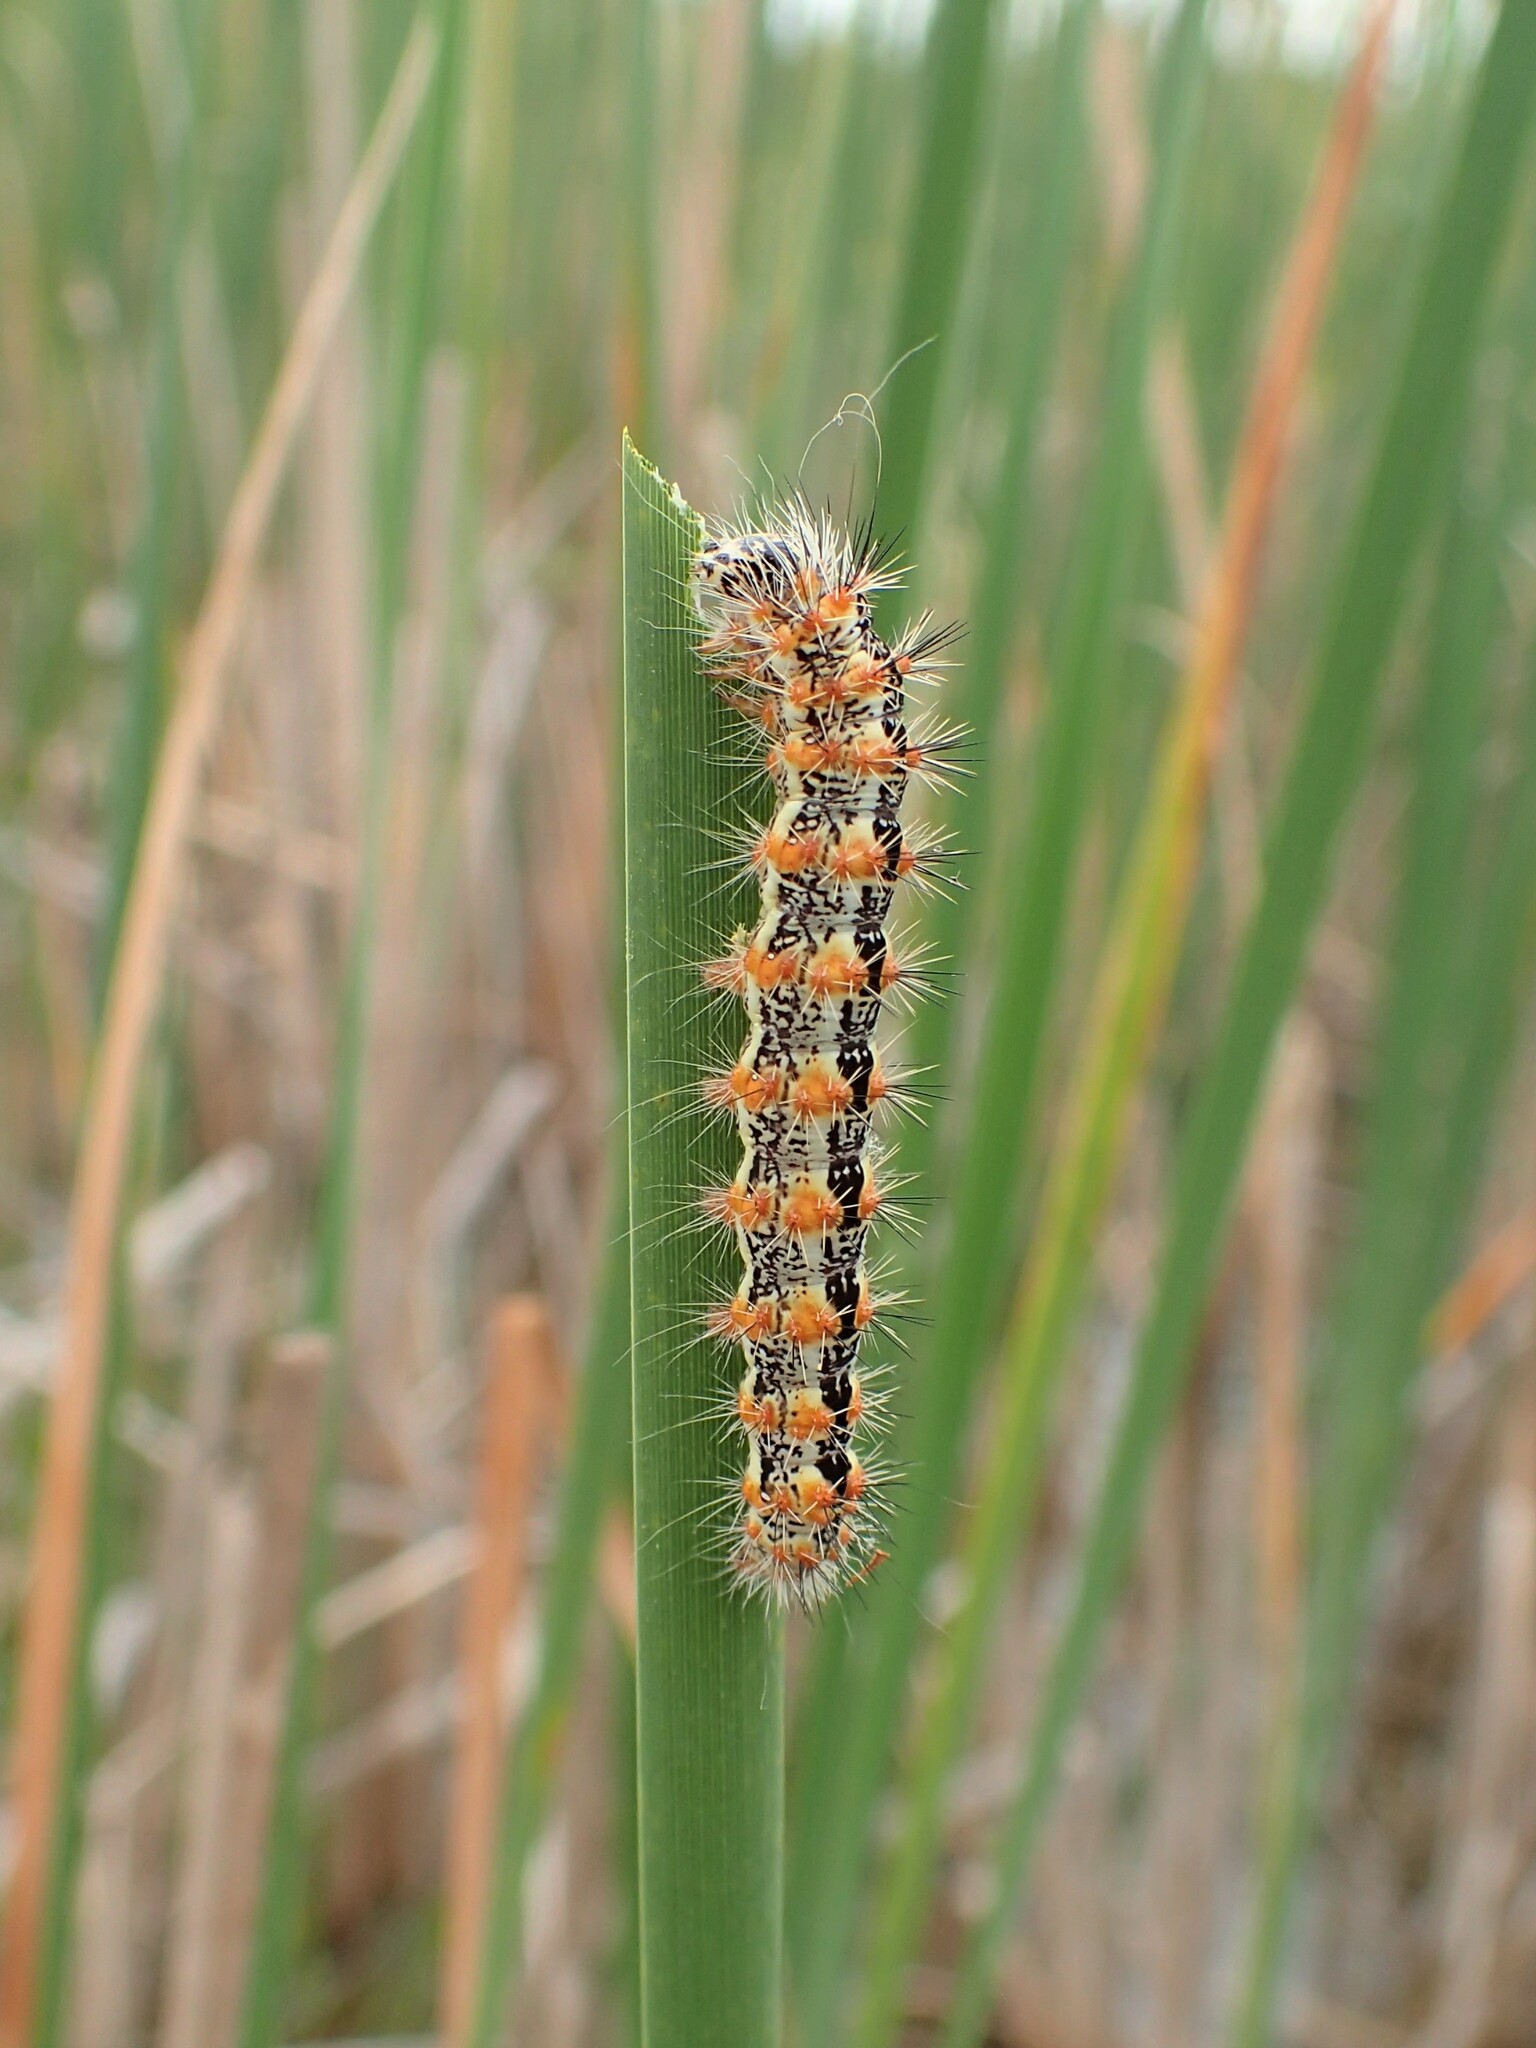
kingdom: Animalia
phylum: Arthropoda
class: Insecta
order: Lepidoptera
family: Noctuidae
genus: Acronicta
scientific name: Acronicta insularis
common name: Henry's marsh moth
